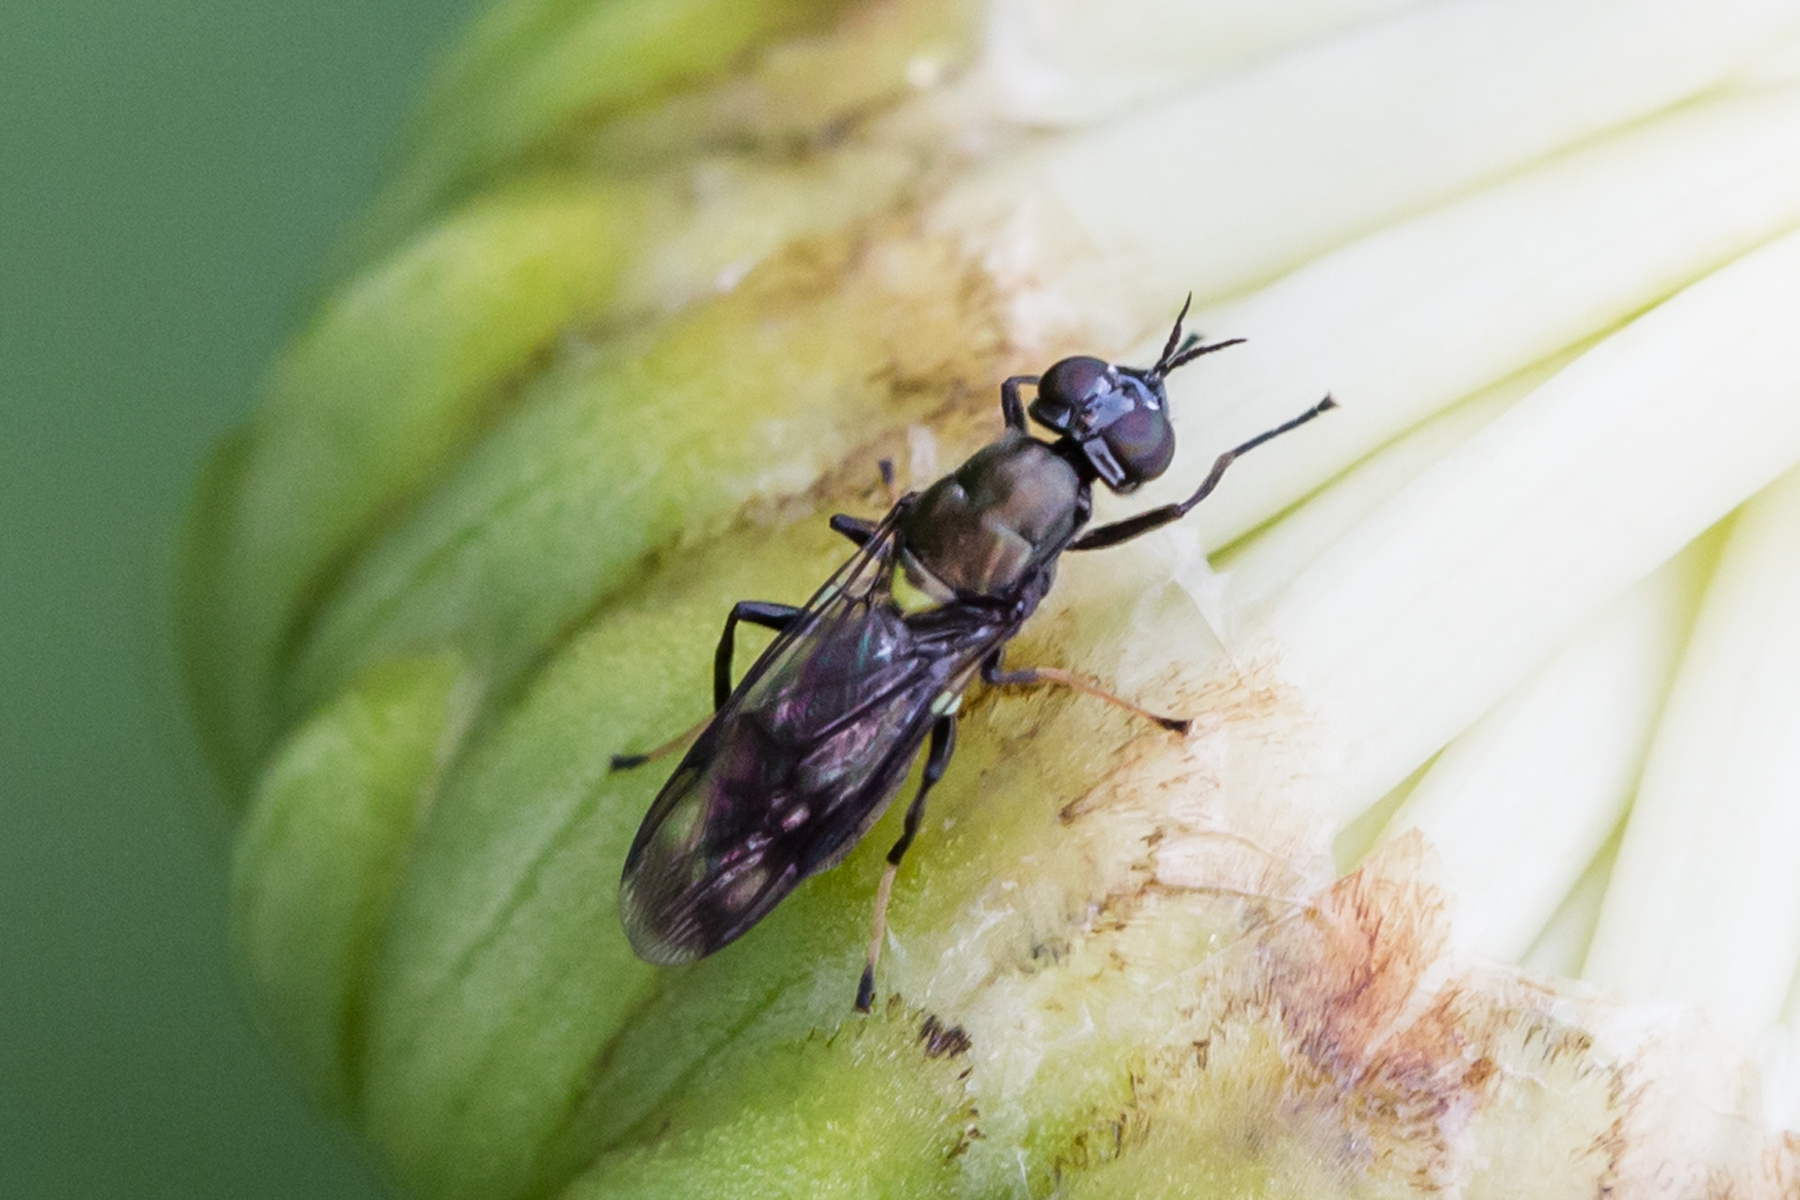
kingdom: Animalia
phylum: Arthropoda
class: Insecta
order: Diptera
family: Stratiomyidae
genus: Myxosargus
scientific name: Myxosargus nigricormis
